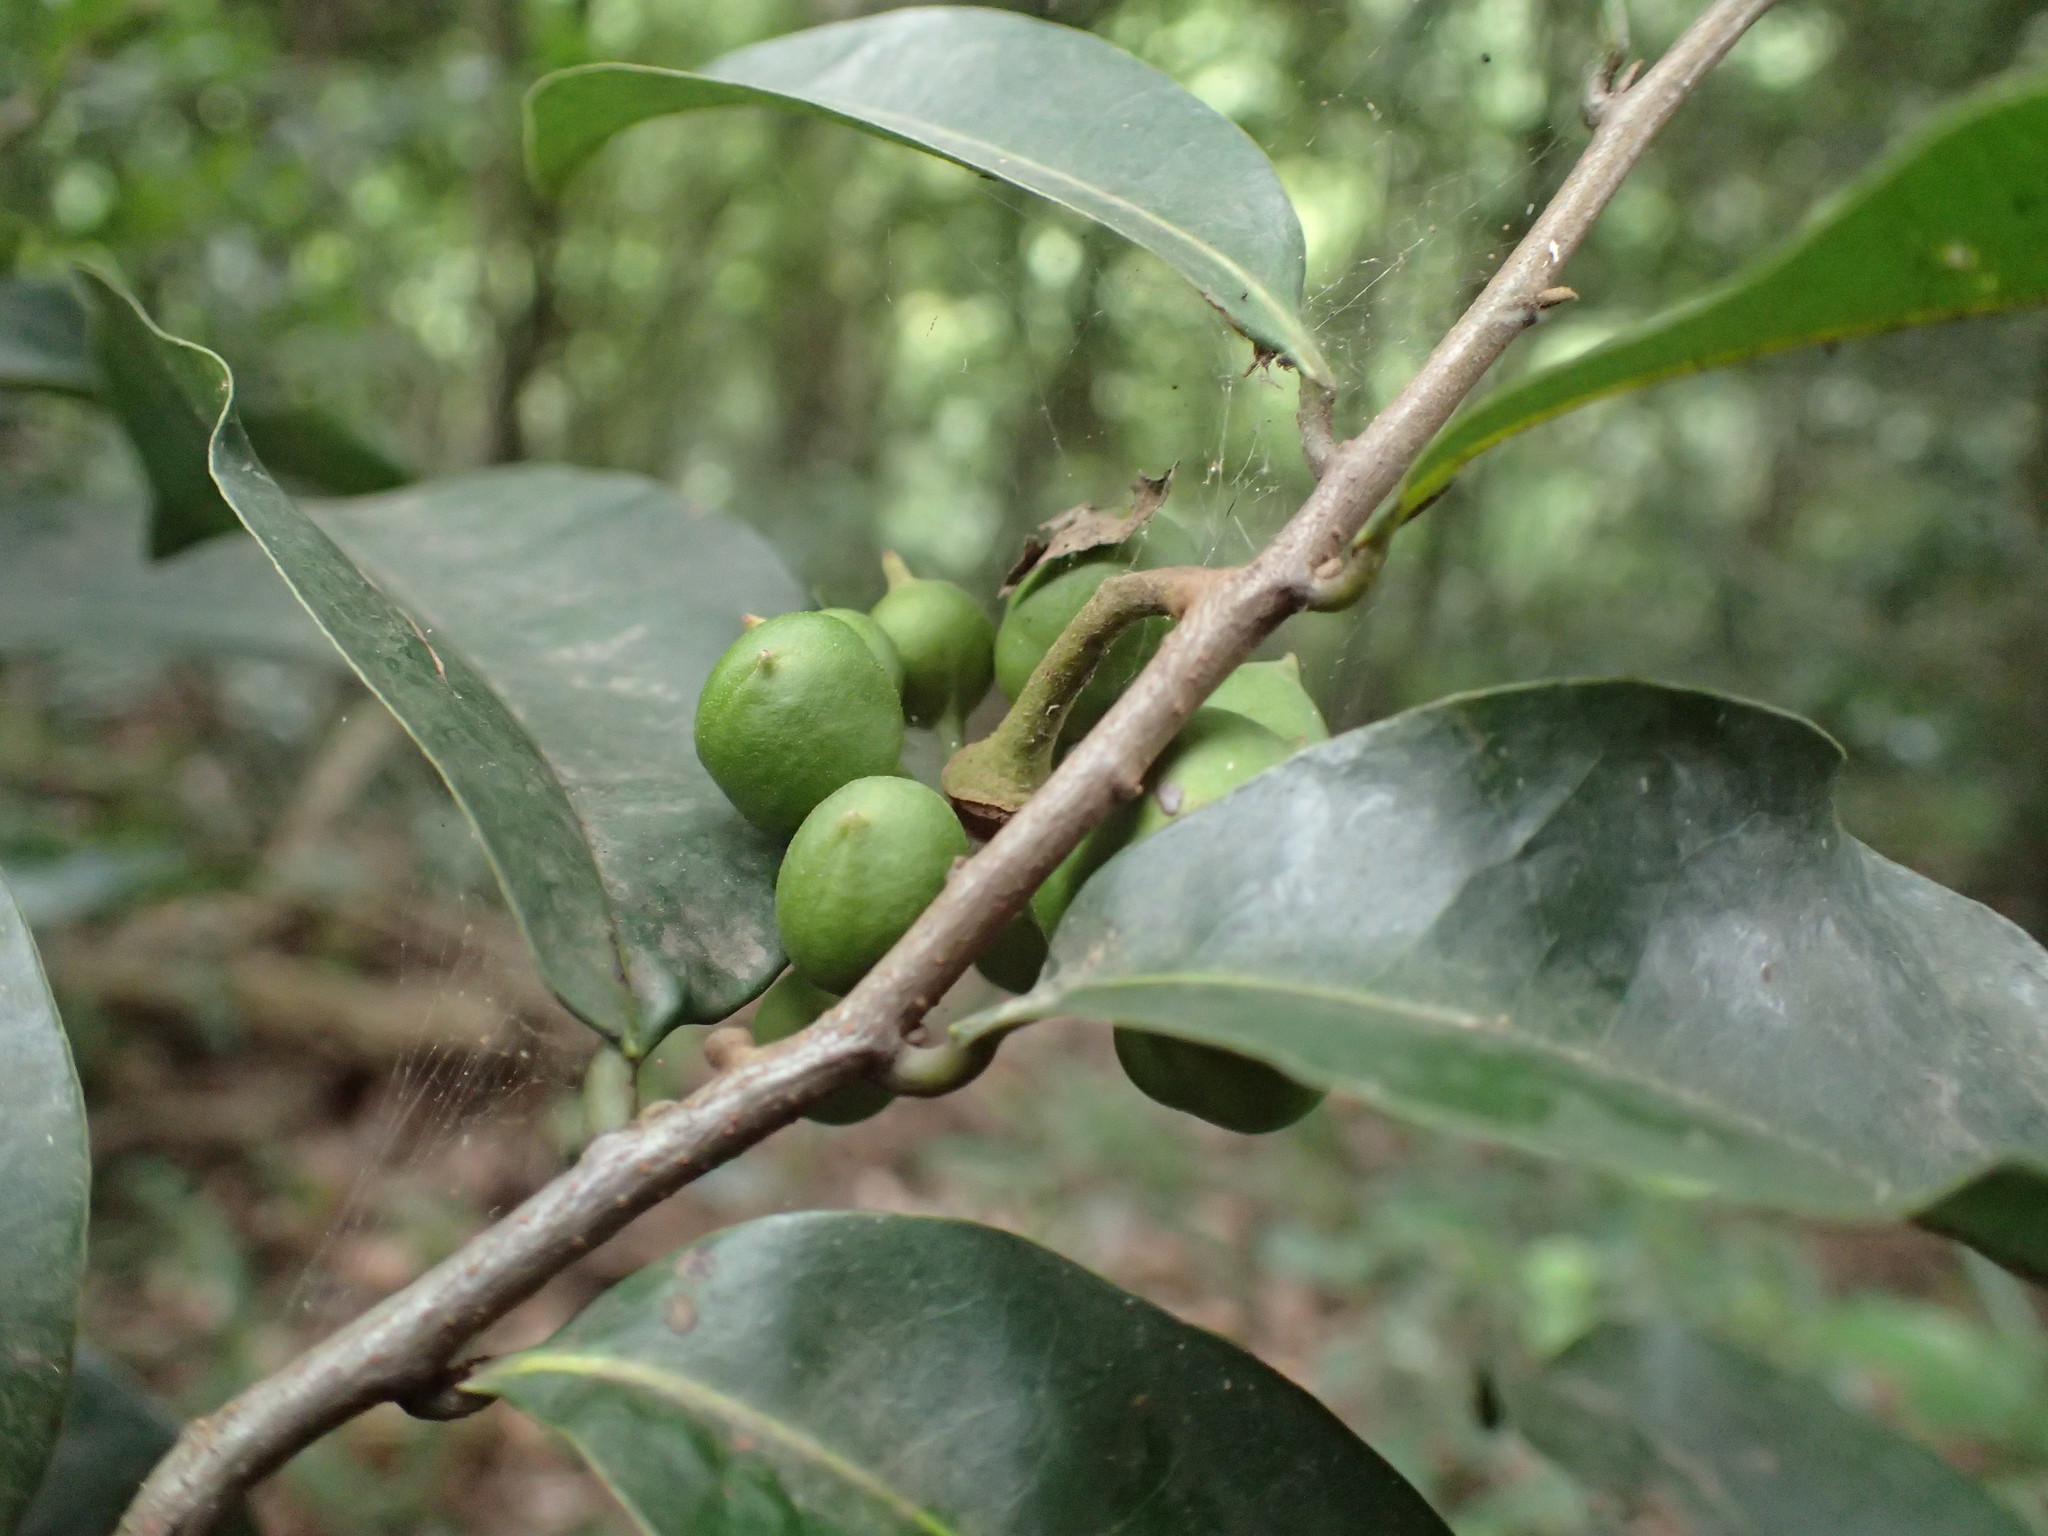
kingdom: Plantae
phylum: Tracheophyta
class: Magnoliopsida
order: Magnoliales
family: Annonaceae
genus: Uvaria
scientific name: Uvaria caffra
